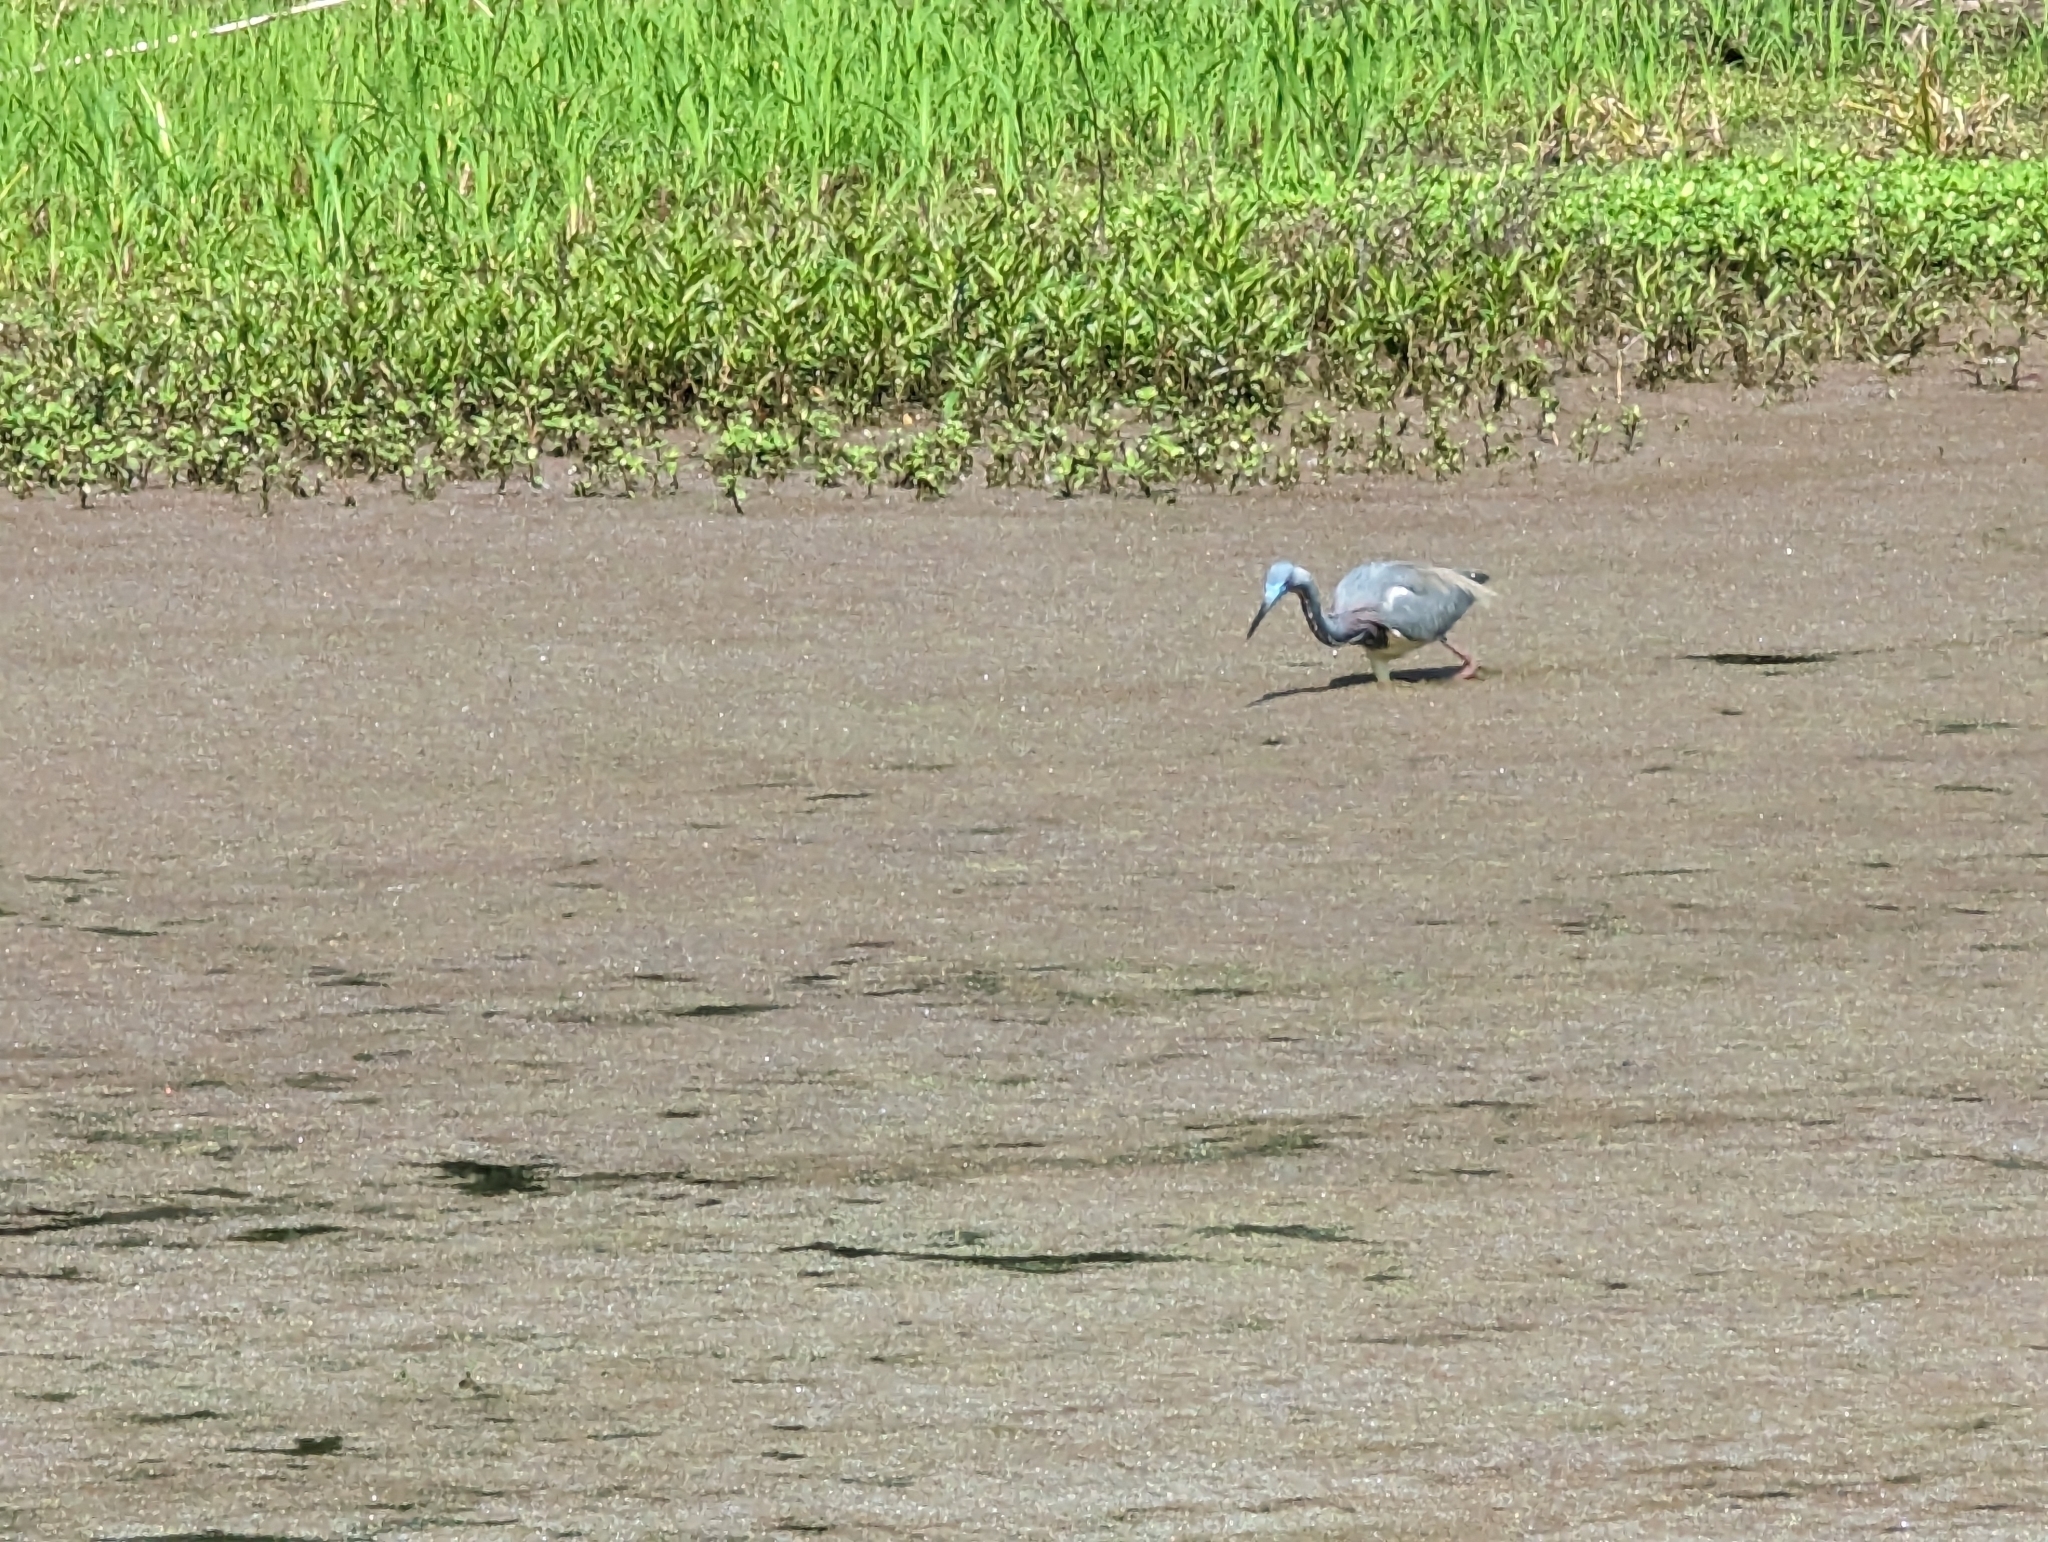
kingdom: Animalia
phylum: Chordata
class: Aves
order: Pelecaniformes
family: Ardeidae
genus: Egretta
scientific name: Egretta tricolor
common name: Tricolored heron
